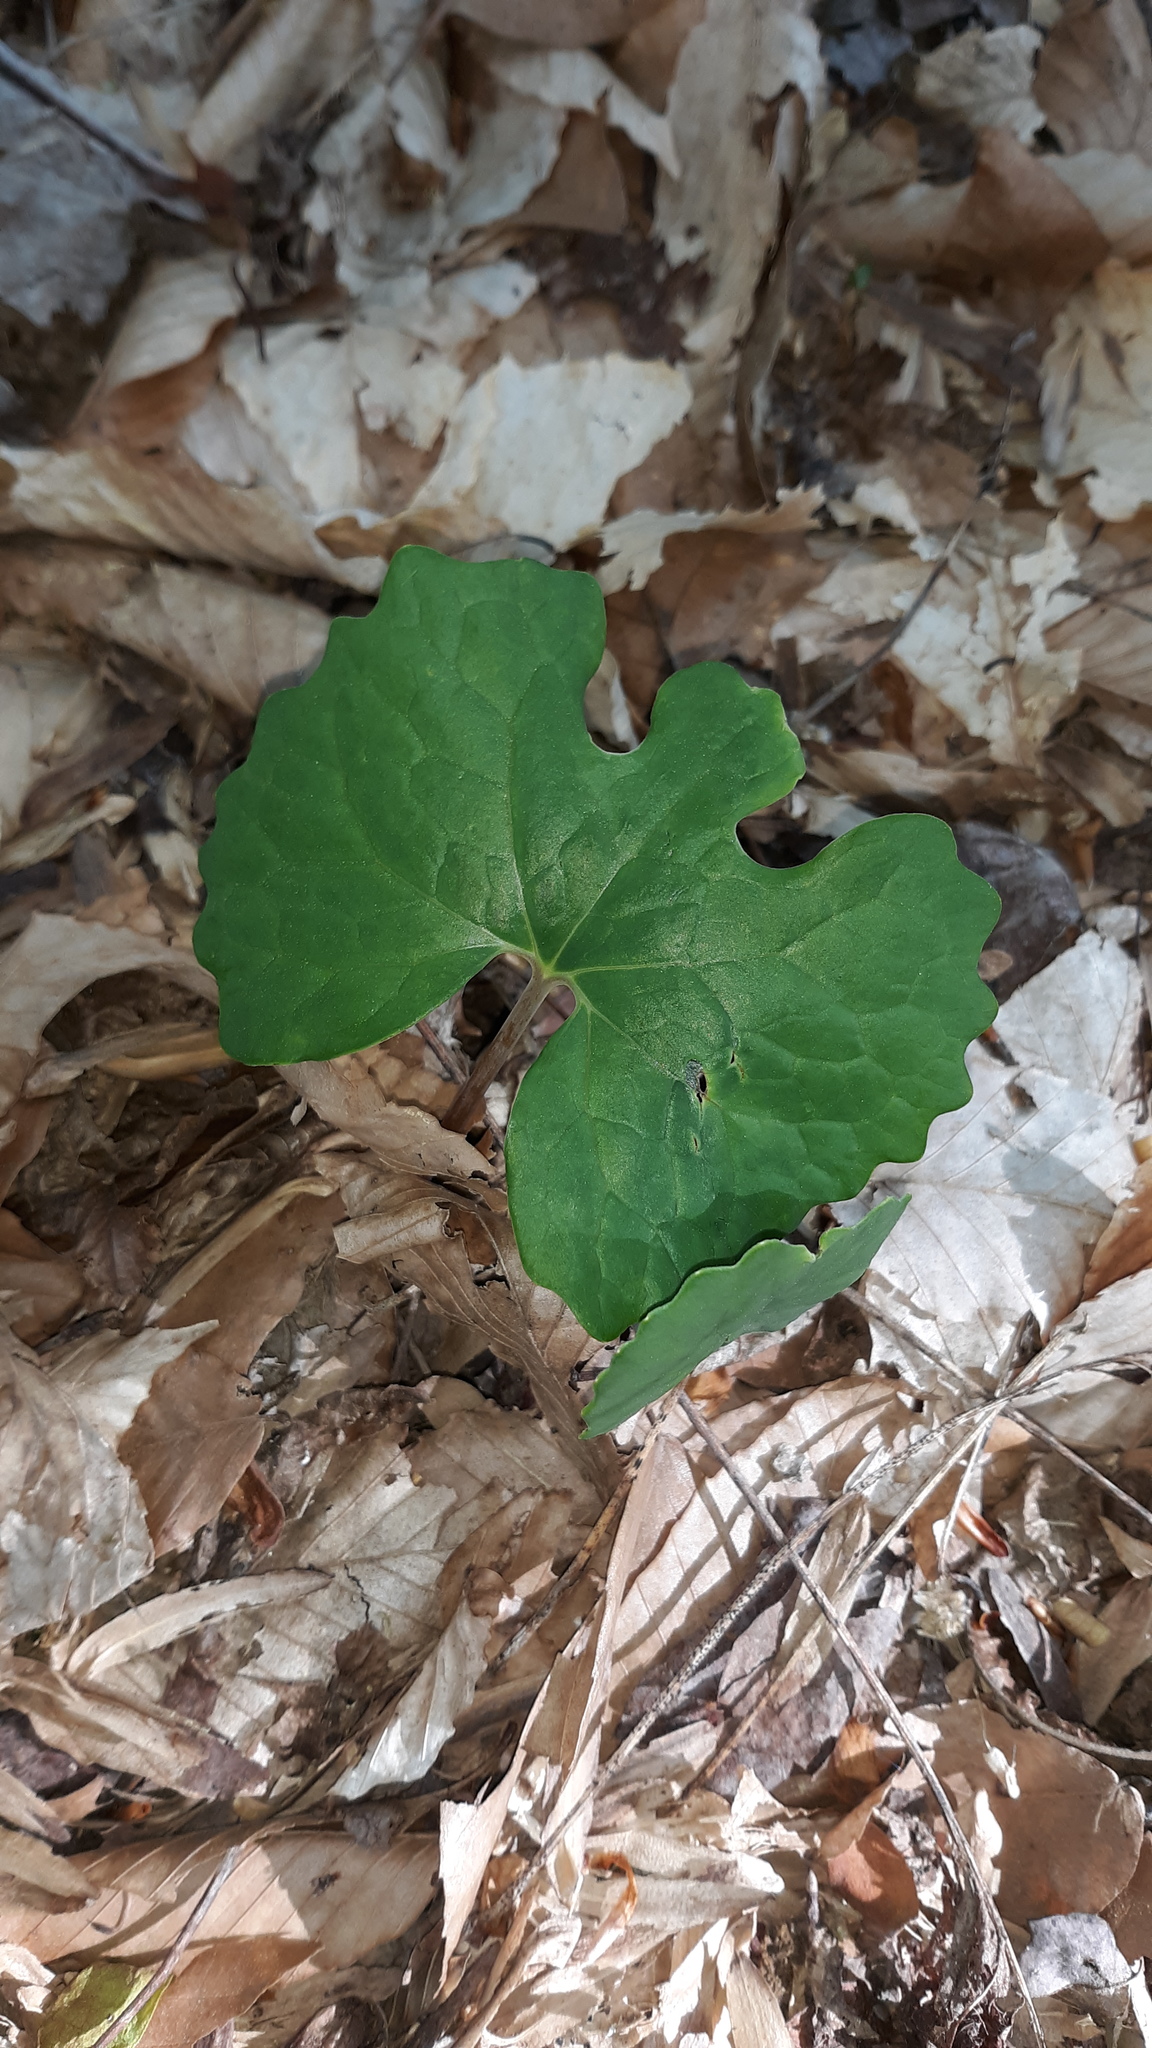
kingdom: Plantae
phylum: Tracheophyta
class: Magnoliopsida
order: Ranunculales
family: Papaveraceae
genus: Sanguinaria
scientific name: Sanguinaria canadensis
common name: Bloodroot
